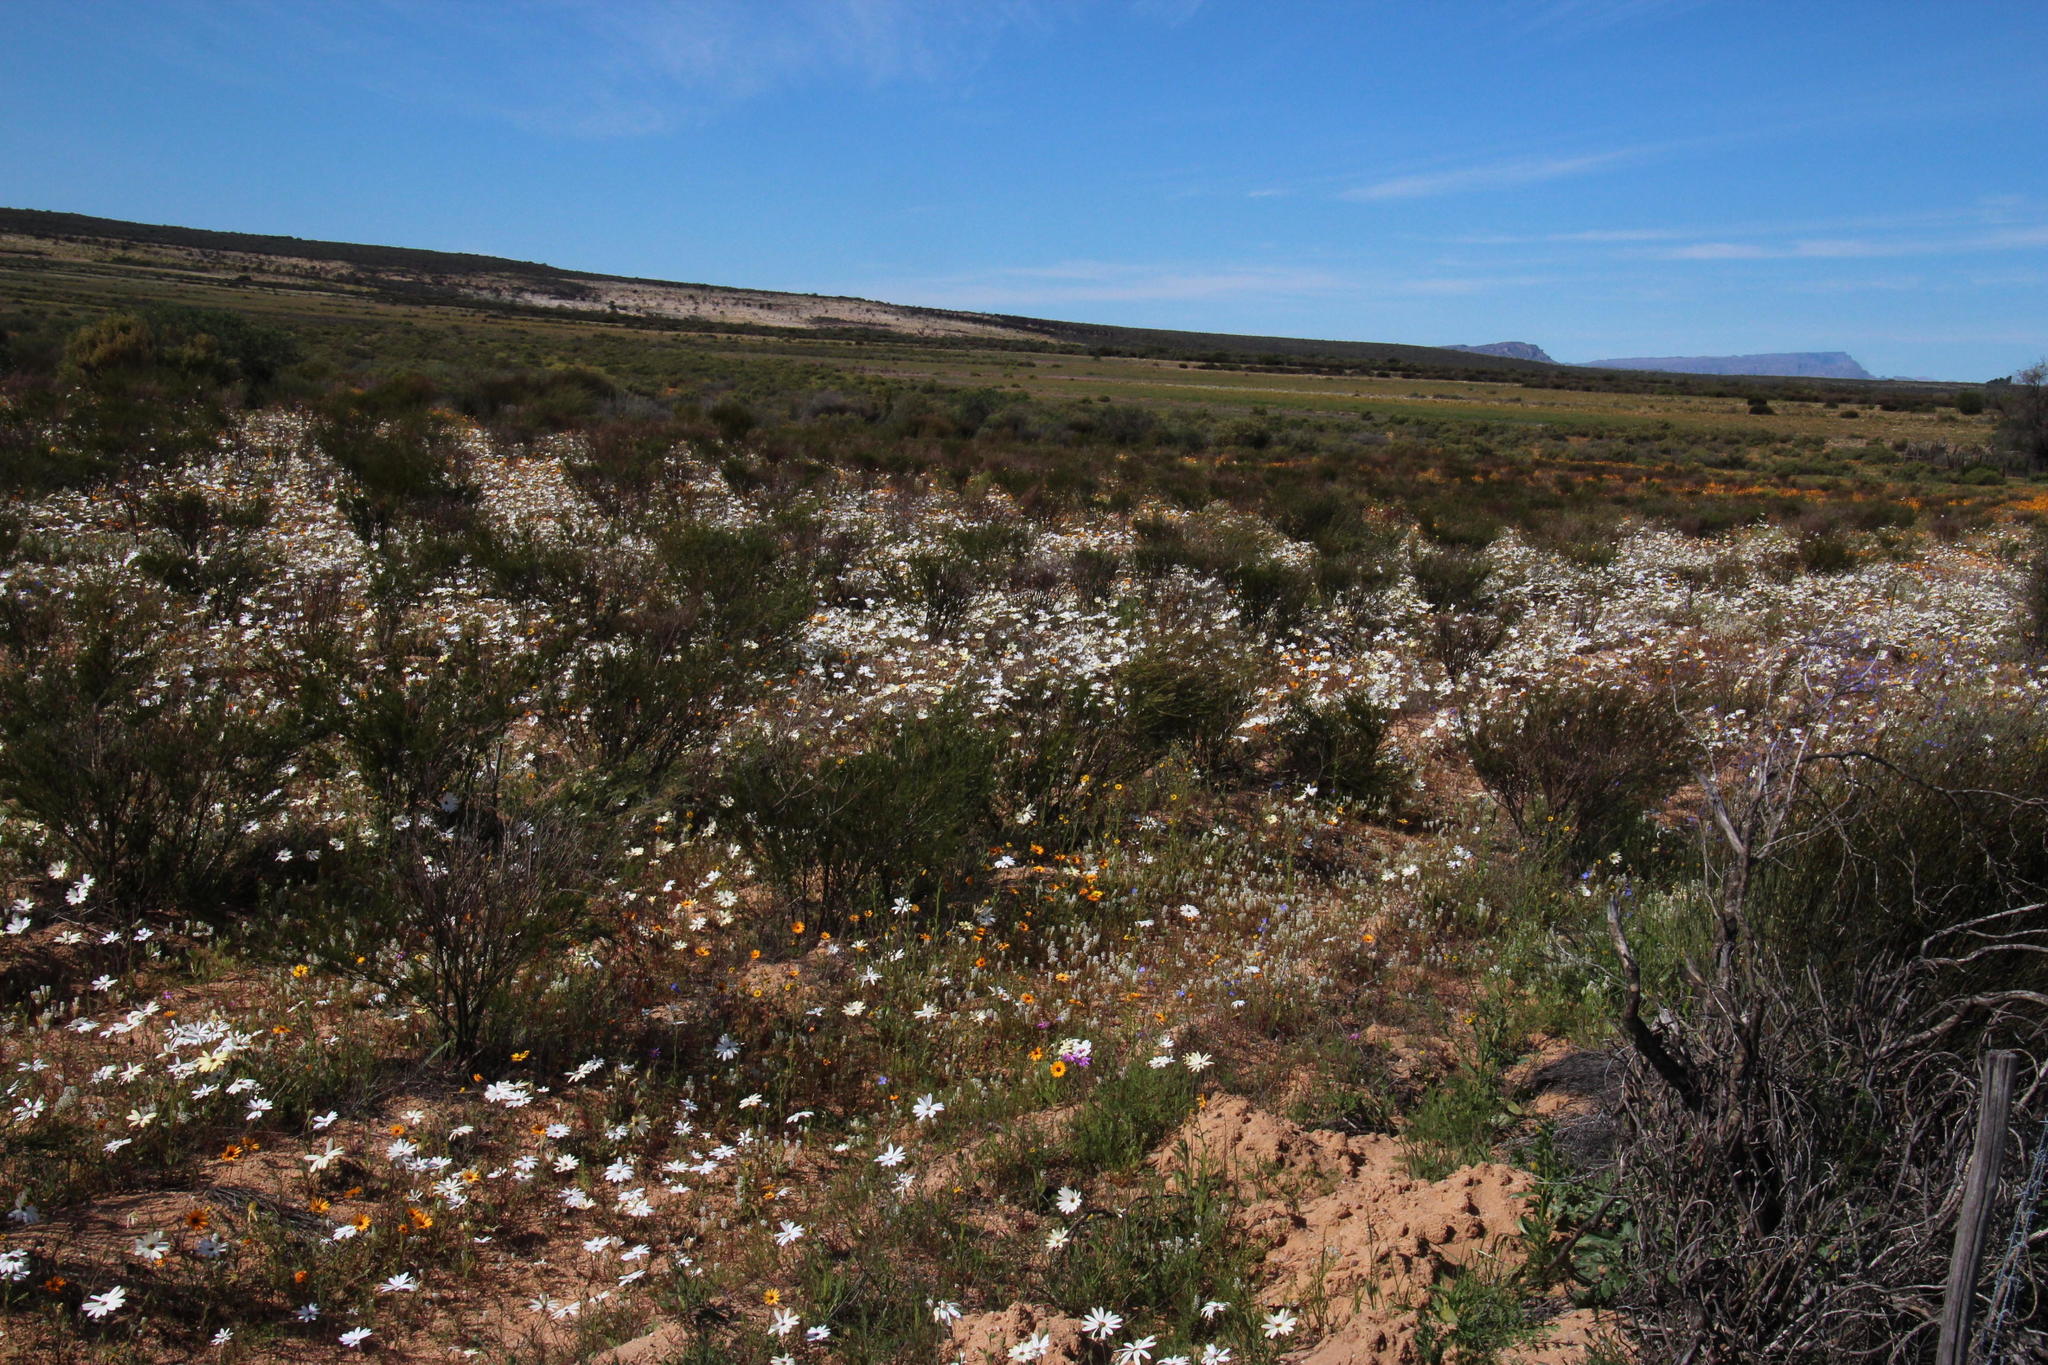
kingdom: Plantae
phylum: Tracheophyta
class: Magnoliopsida
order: Asterales
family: Asteraceae
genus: Dimorphotheca
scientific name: Dimorphotheca pluvialis
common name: Weather prophet
